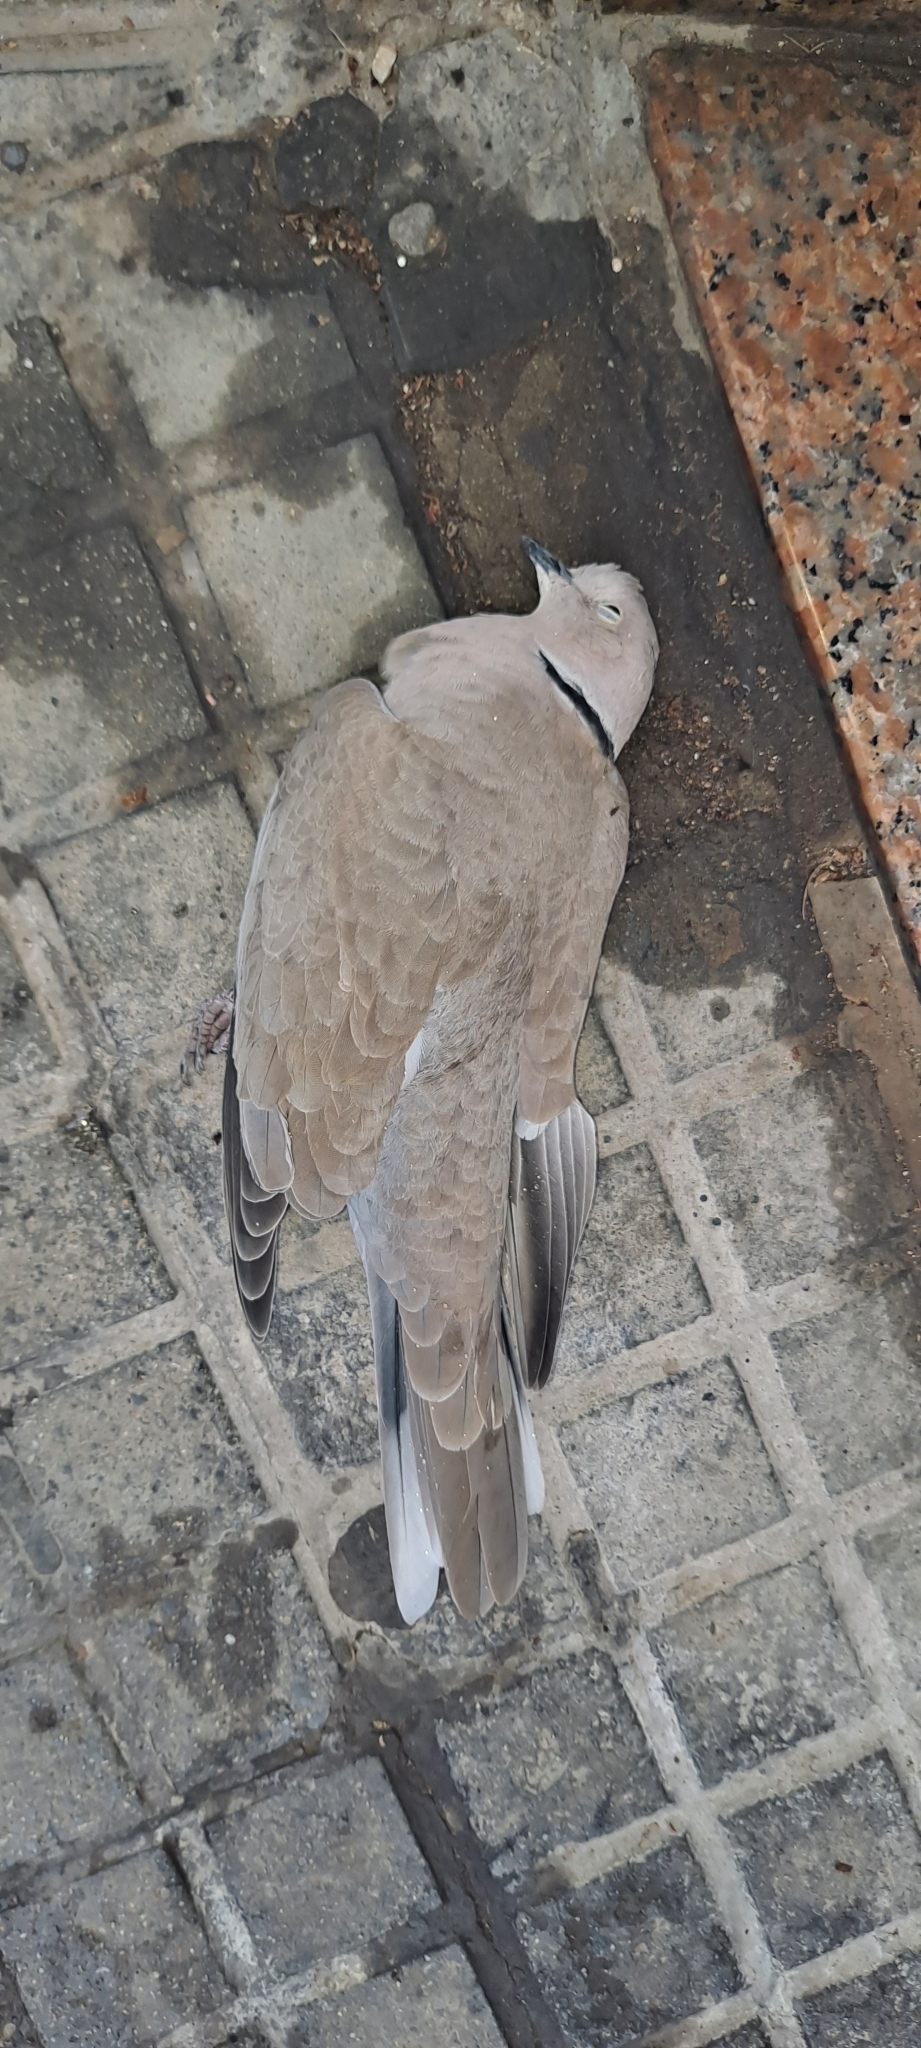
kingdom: Animalia
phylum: Chordata
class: Aves
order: Columbiformes
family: Columbidae
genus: Streptopelia
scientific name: Streptopelia decaocto
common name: Eurasian collared dove
